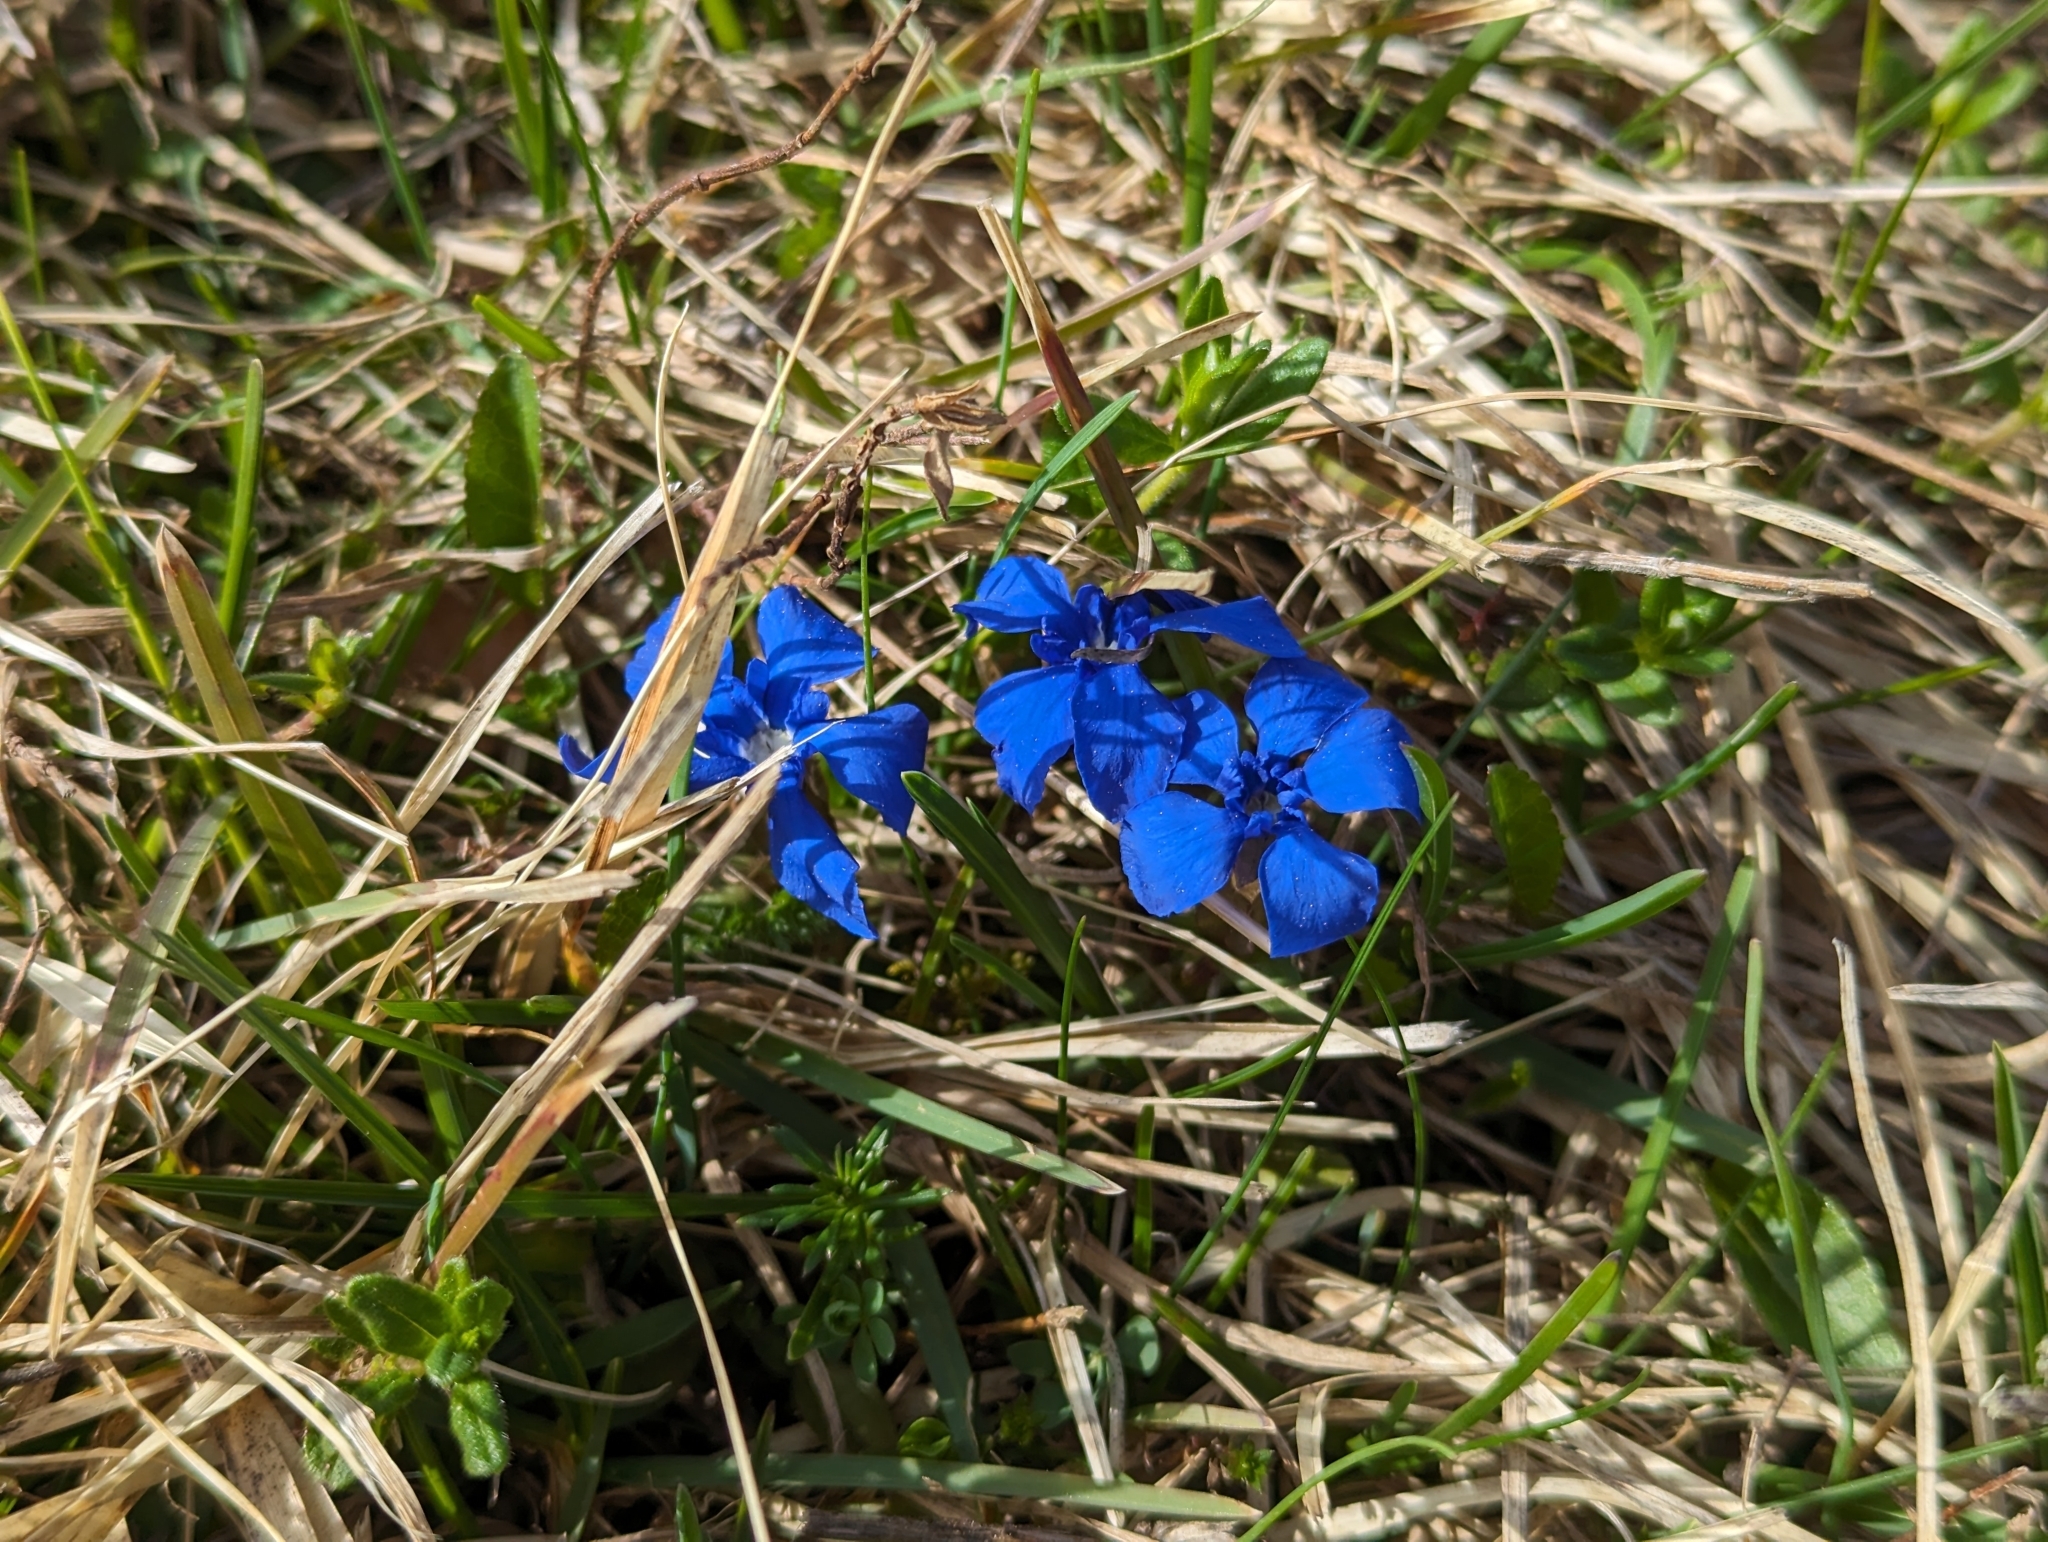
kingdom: Plantae
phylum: Tracheophyta
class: Magnoliopsida
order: Gentianales
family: Gentianaceae
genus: Gentiana
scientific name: Gentiana verna
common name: Spring gentian
